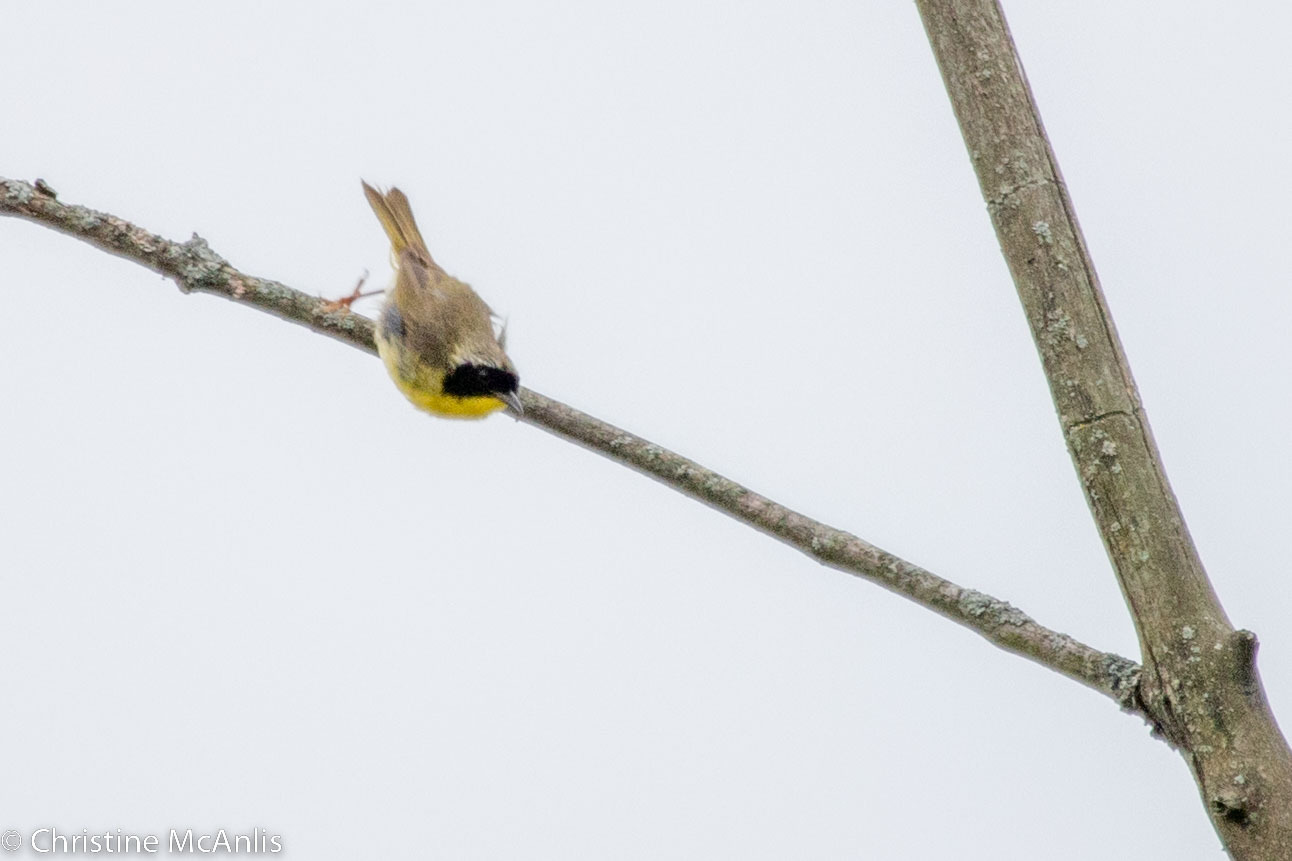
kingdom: Animalia
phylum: Chordata
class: Aves
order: Passeriformes
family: Parulidae
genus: Geothlypis
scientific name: Geothlypis trichas
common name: Common yellowthroat
